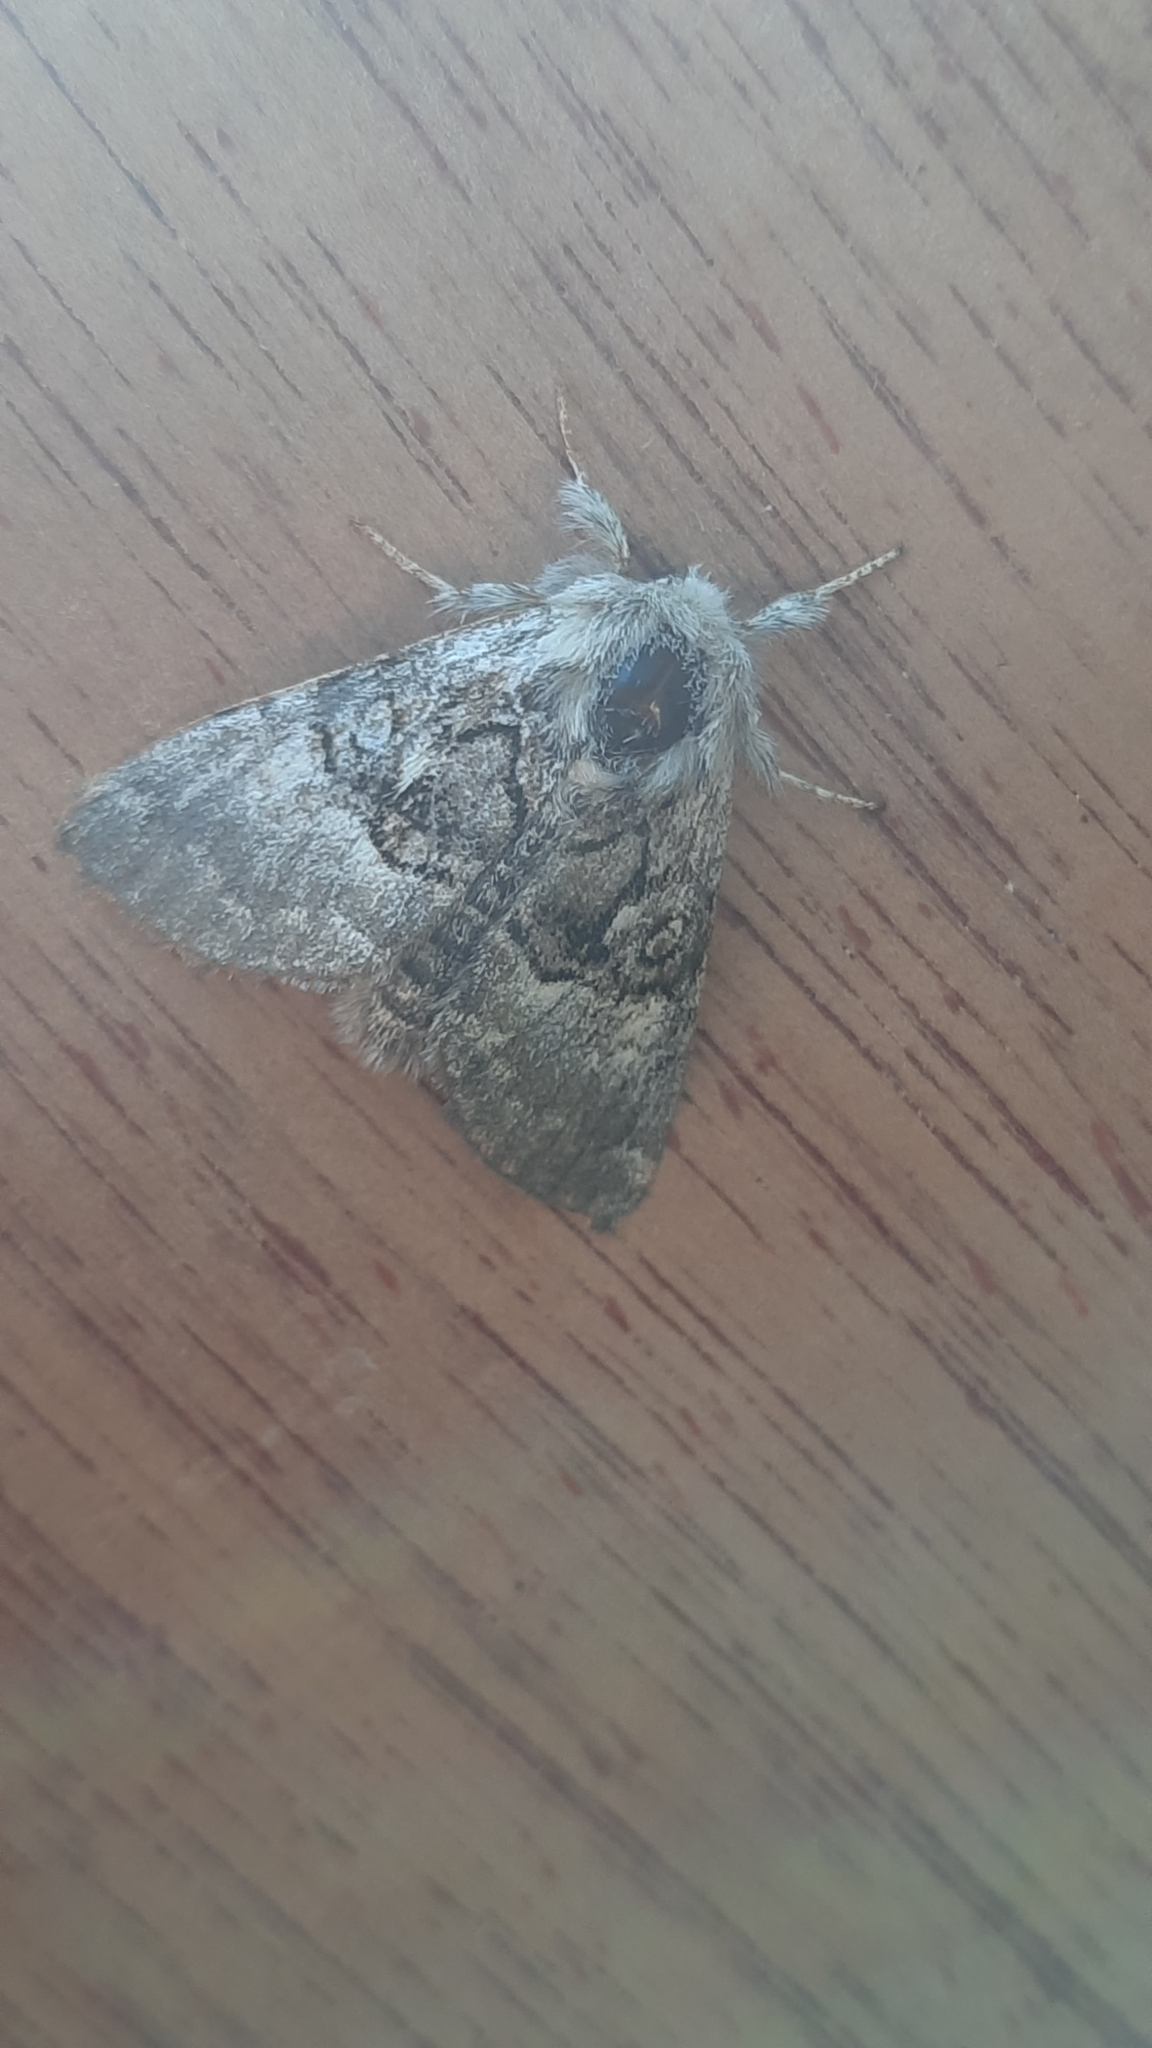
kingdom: Animalia
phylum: Arthropoda
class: Insecta
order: Lepidoptera
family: Noctuidae
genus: Colocasia
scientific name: Colocasia coryli
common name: Nut-tree tussock
